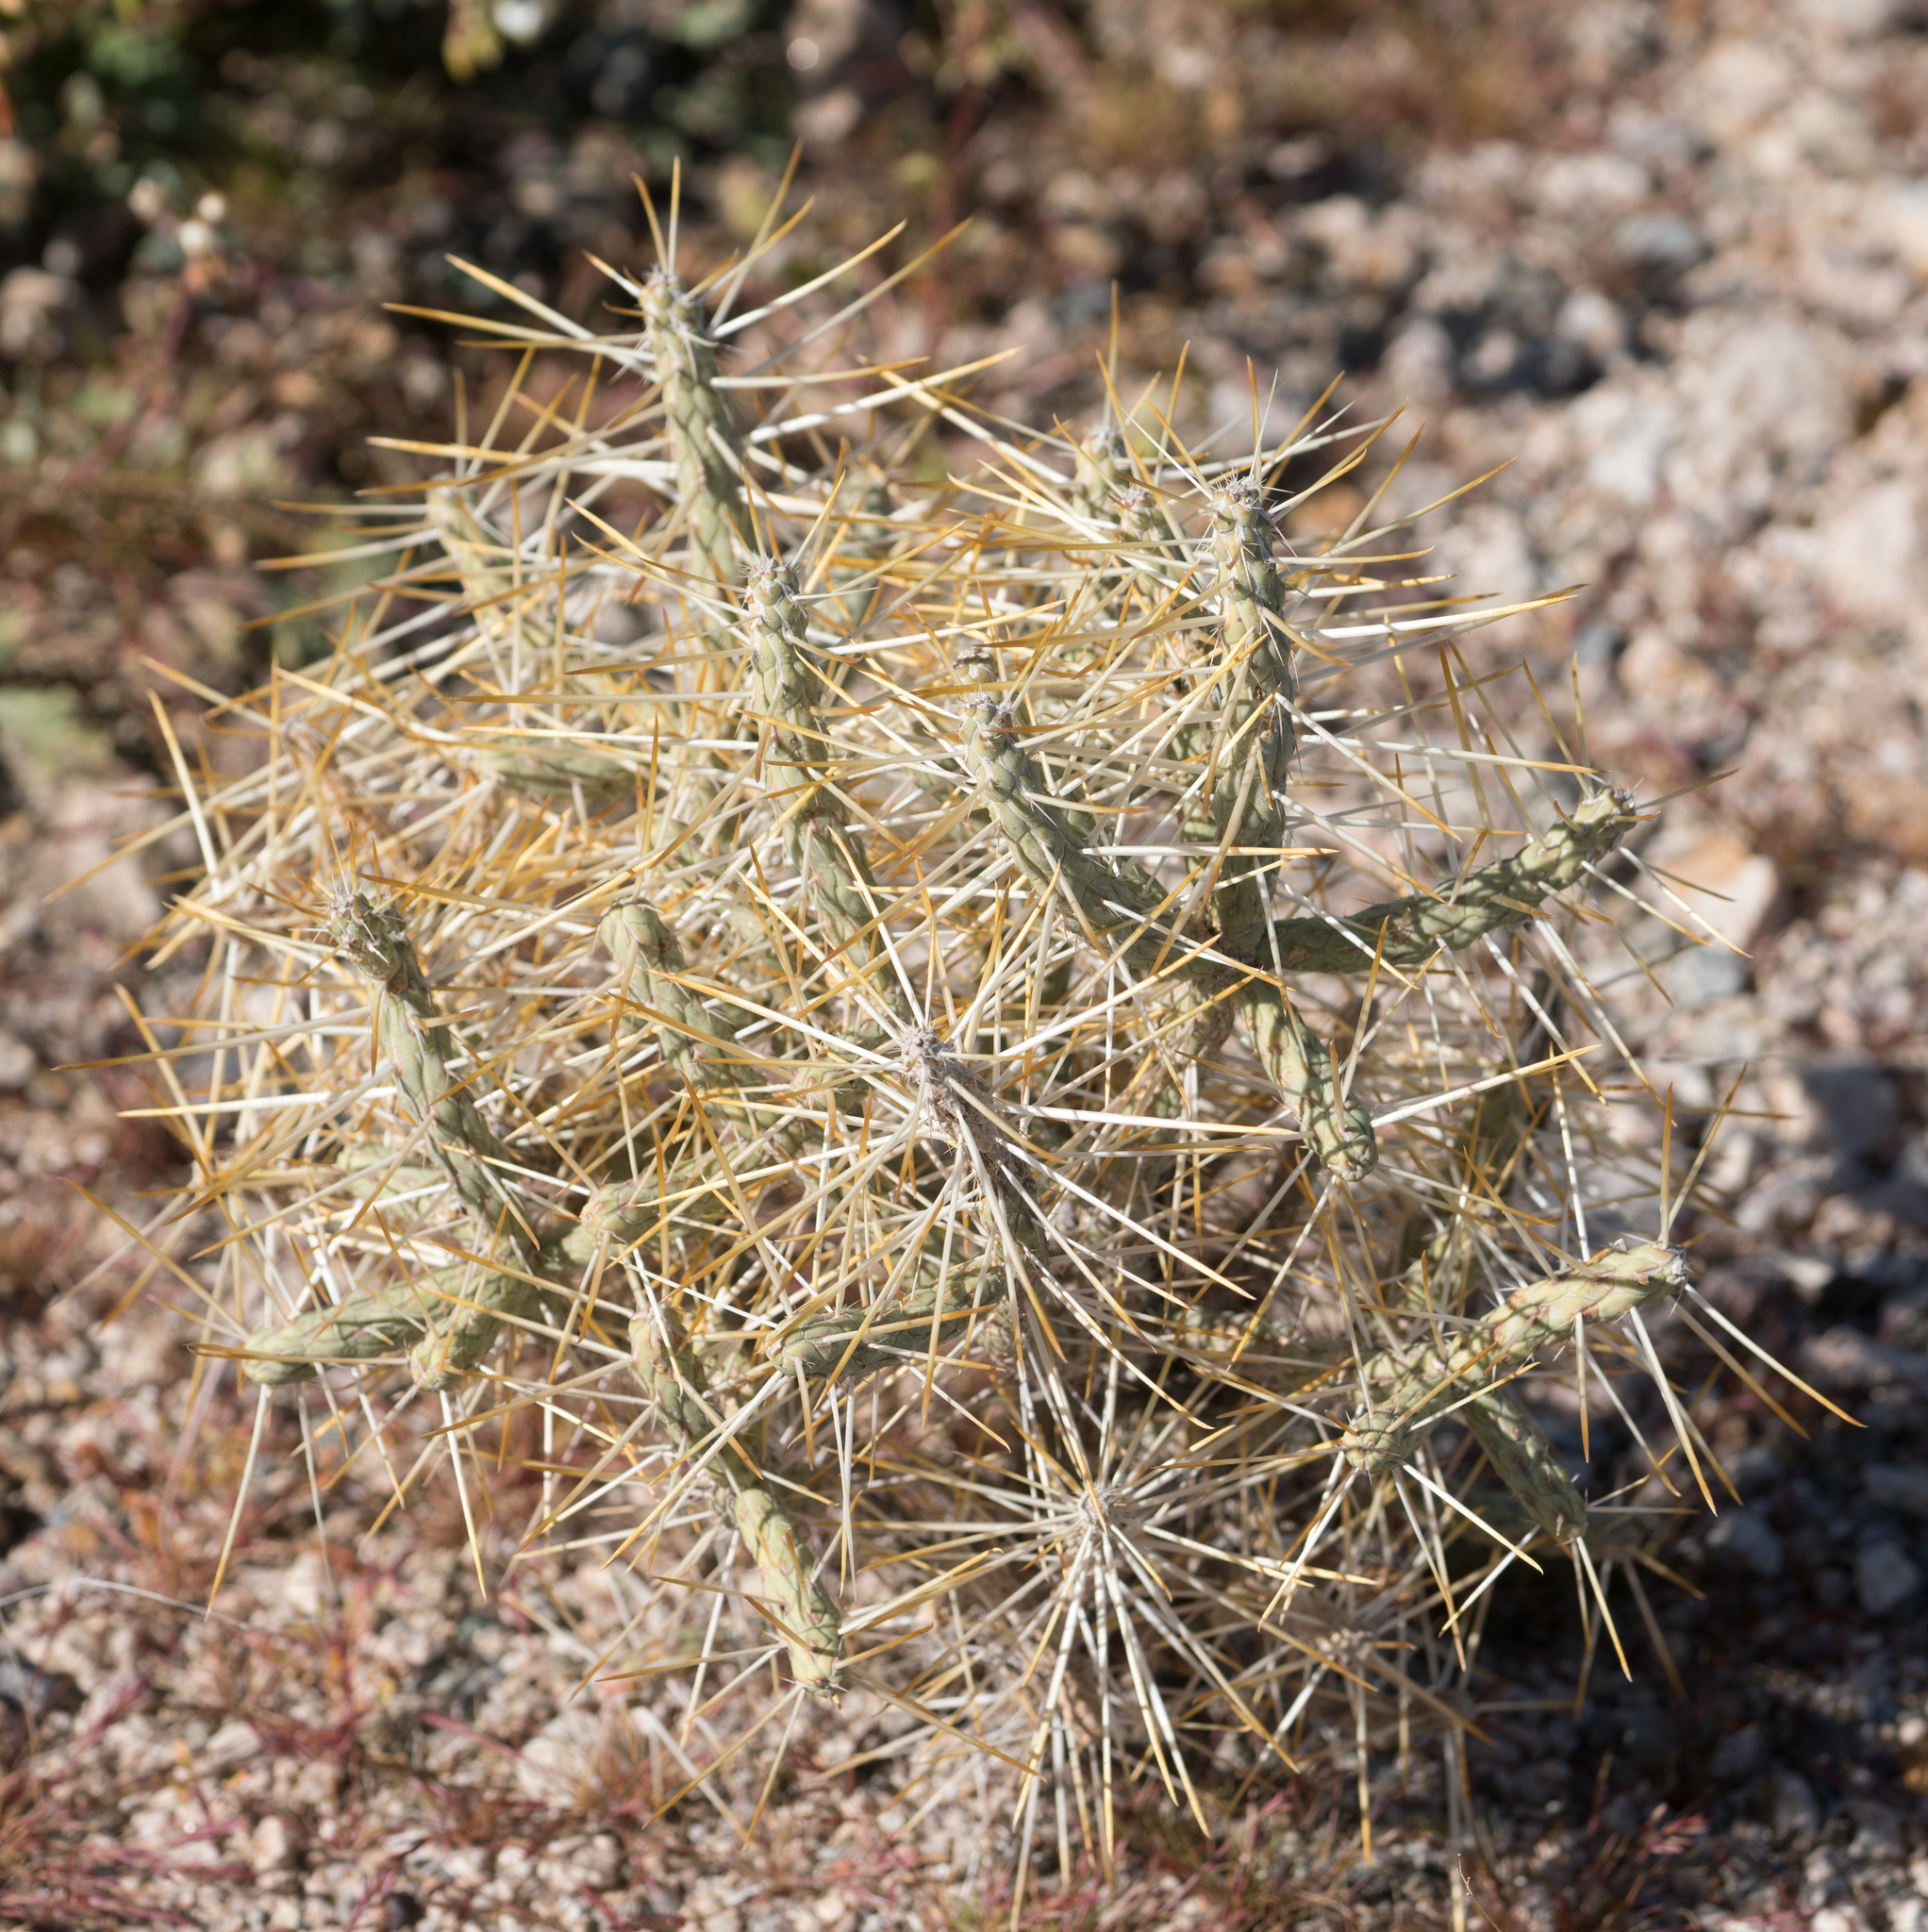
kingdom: Plantae
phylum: Tracheophyta
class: Magnoliopsida
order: Caryophyllales
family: Cactaceae
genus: Cylindropuntia
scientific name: Cylindropuntia ramosissima
